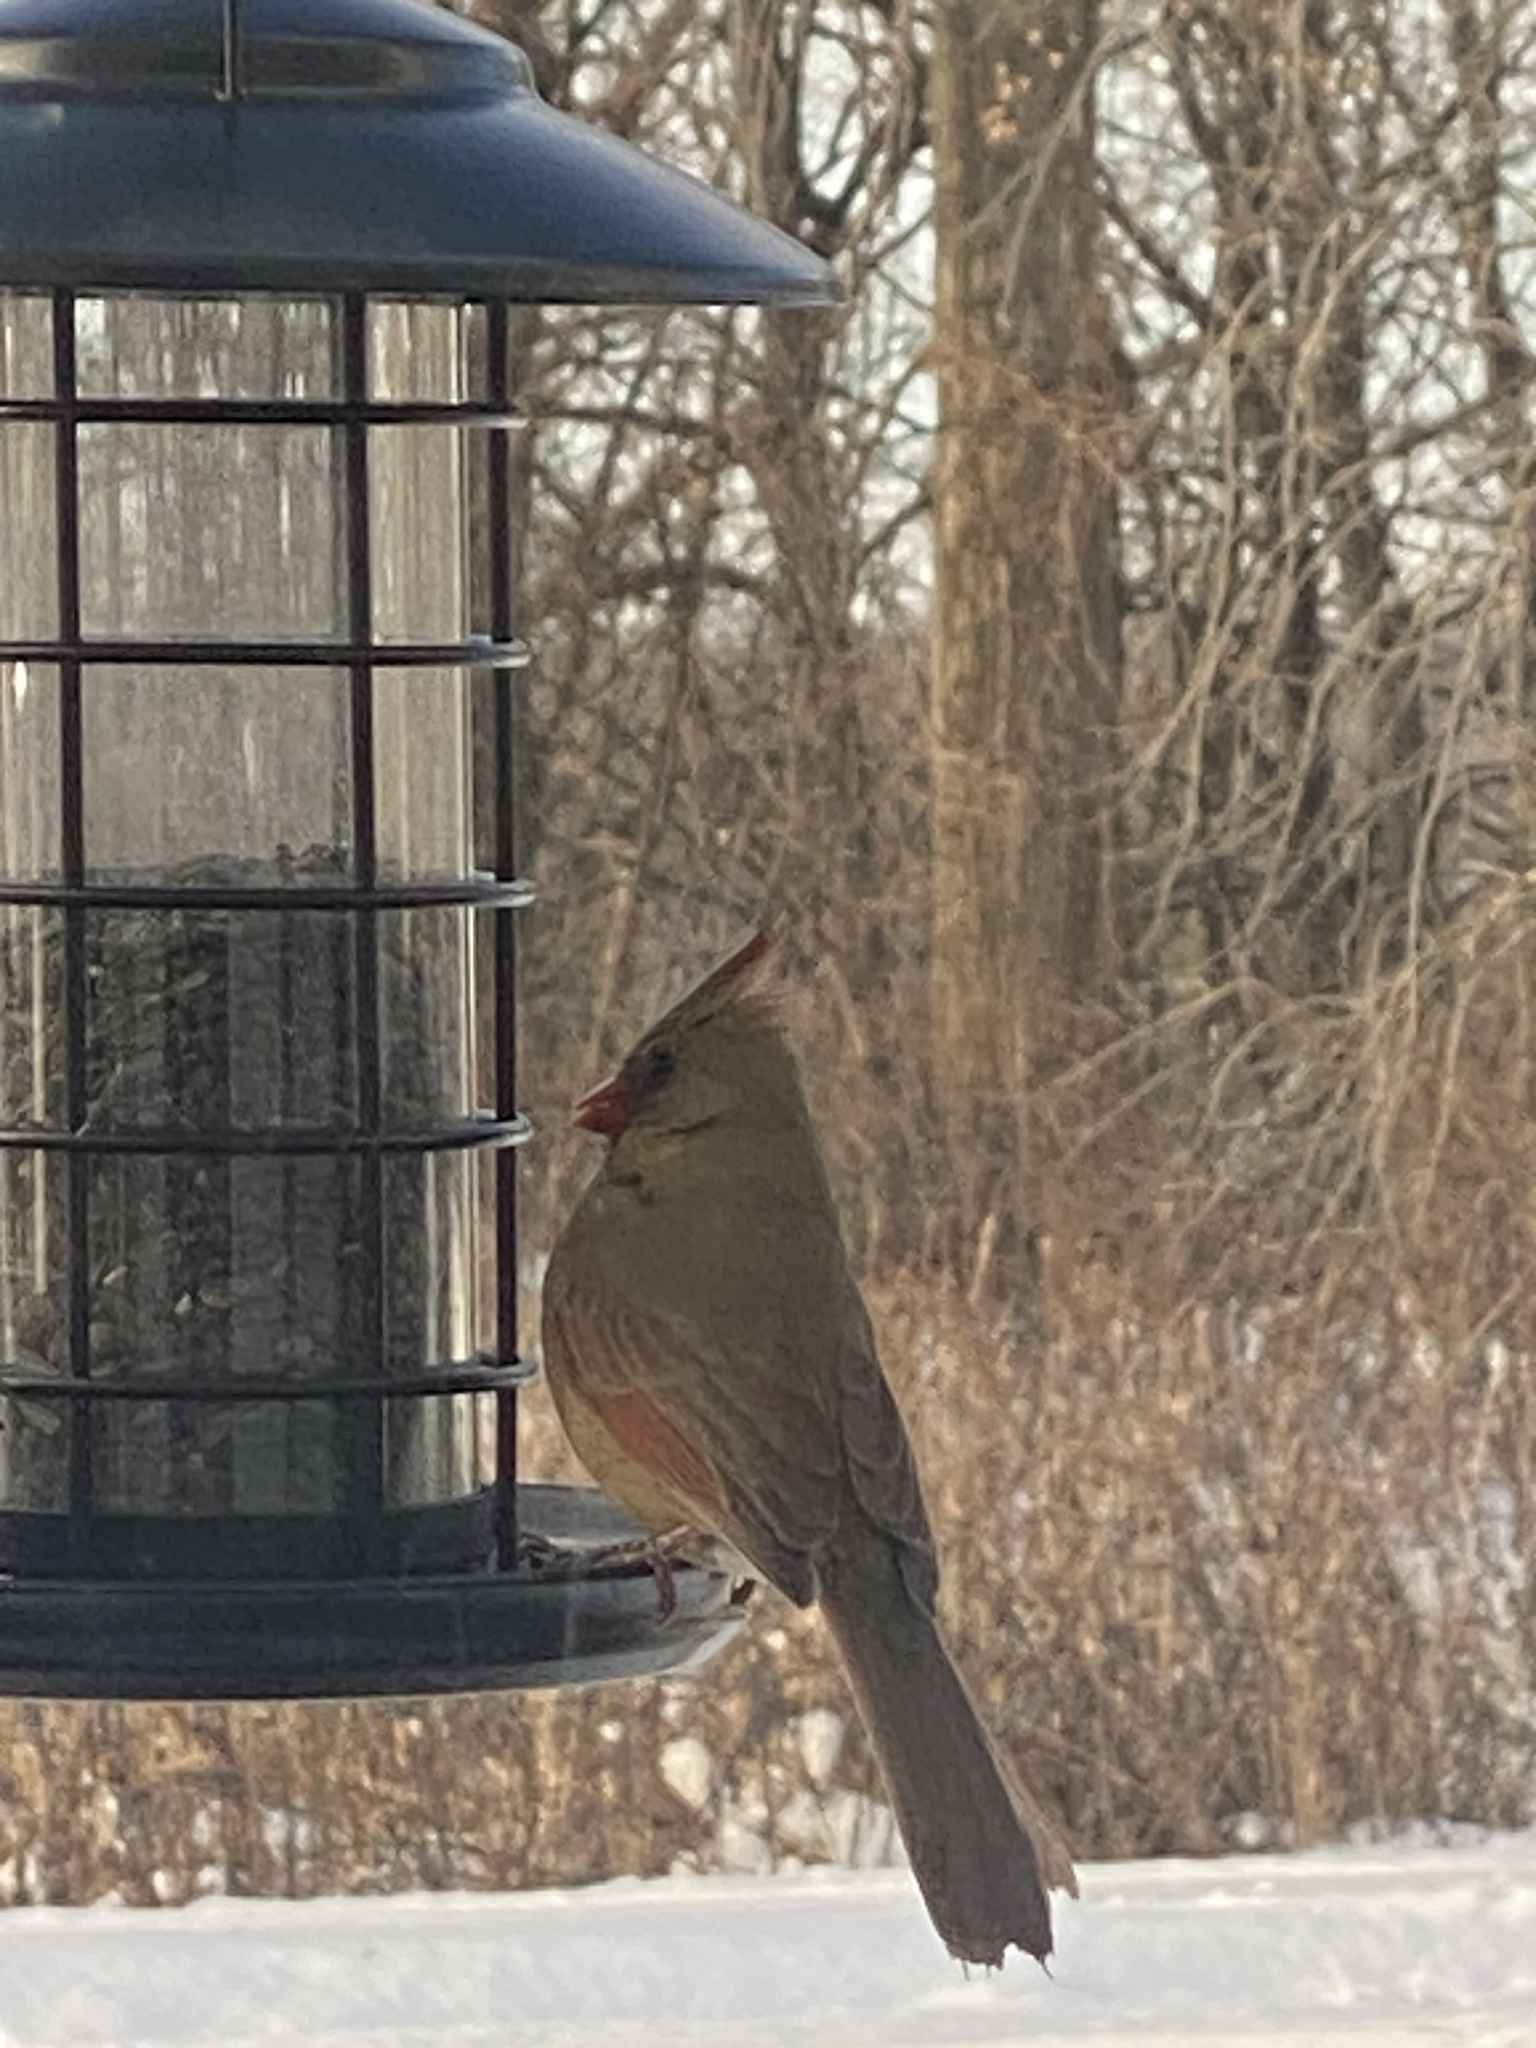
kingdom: Animalia
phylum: Chordata
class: Aves
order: Passeriformes
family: Cardinalidae
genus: Cardinalis
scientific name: Cardinalis cardinalis
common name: Northern cardinal
